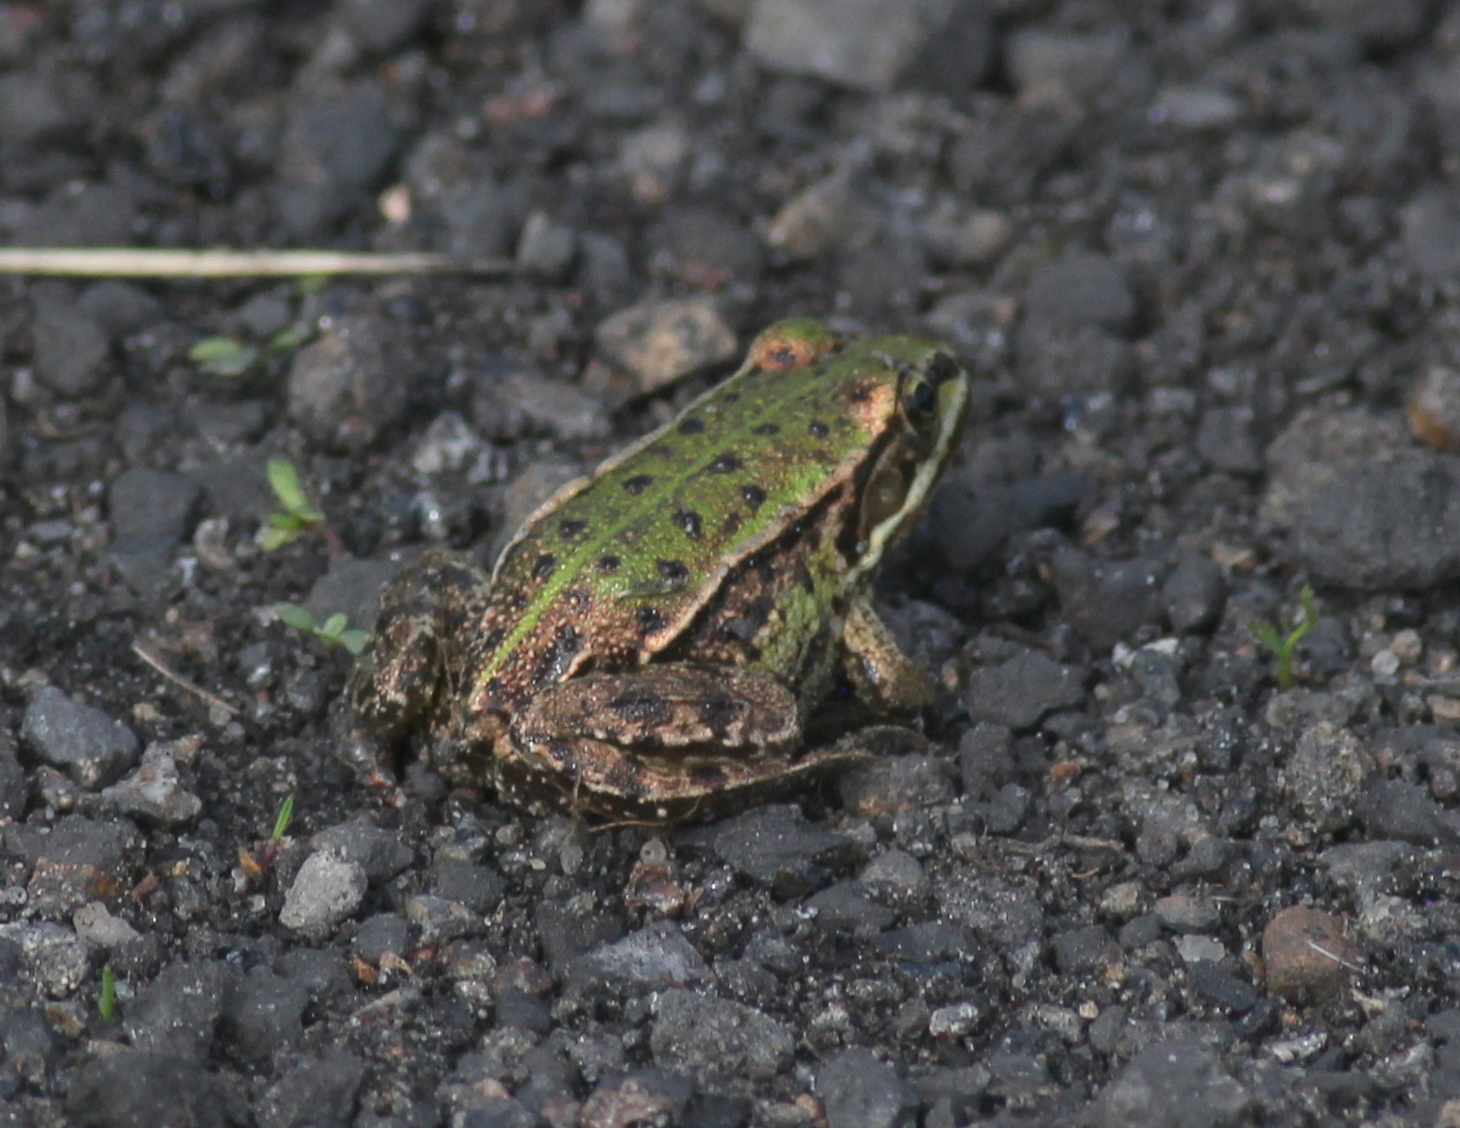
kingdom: Animalia
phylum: Chordata
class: Amphibia
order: Anura
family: Ranidae
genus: Pelophylax
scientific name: Pelophylax
